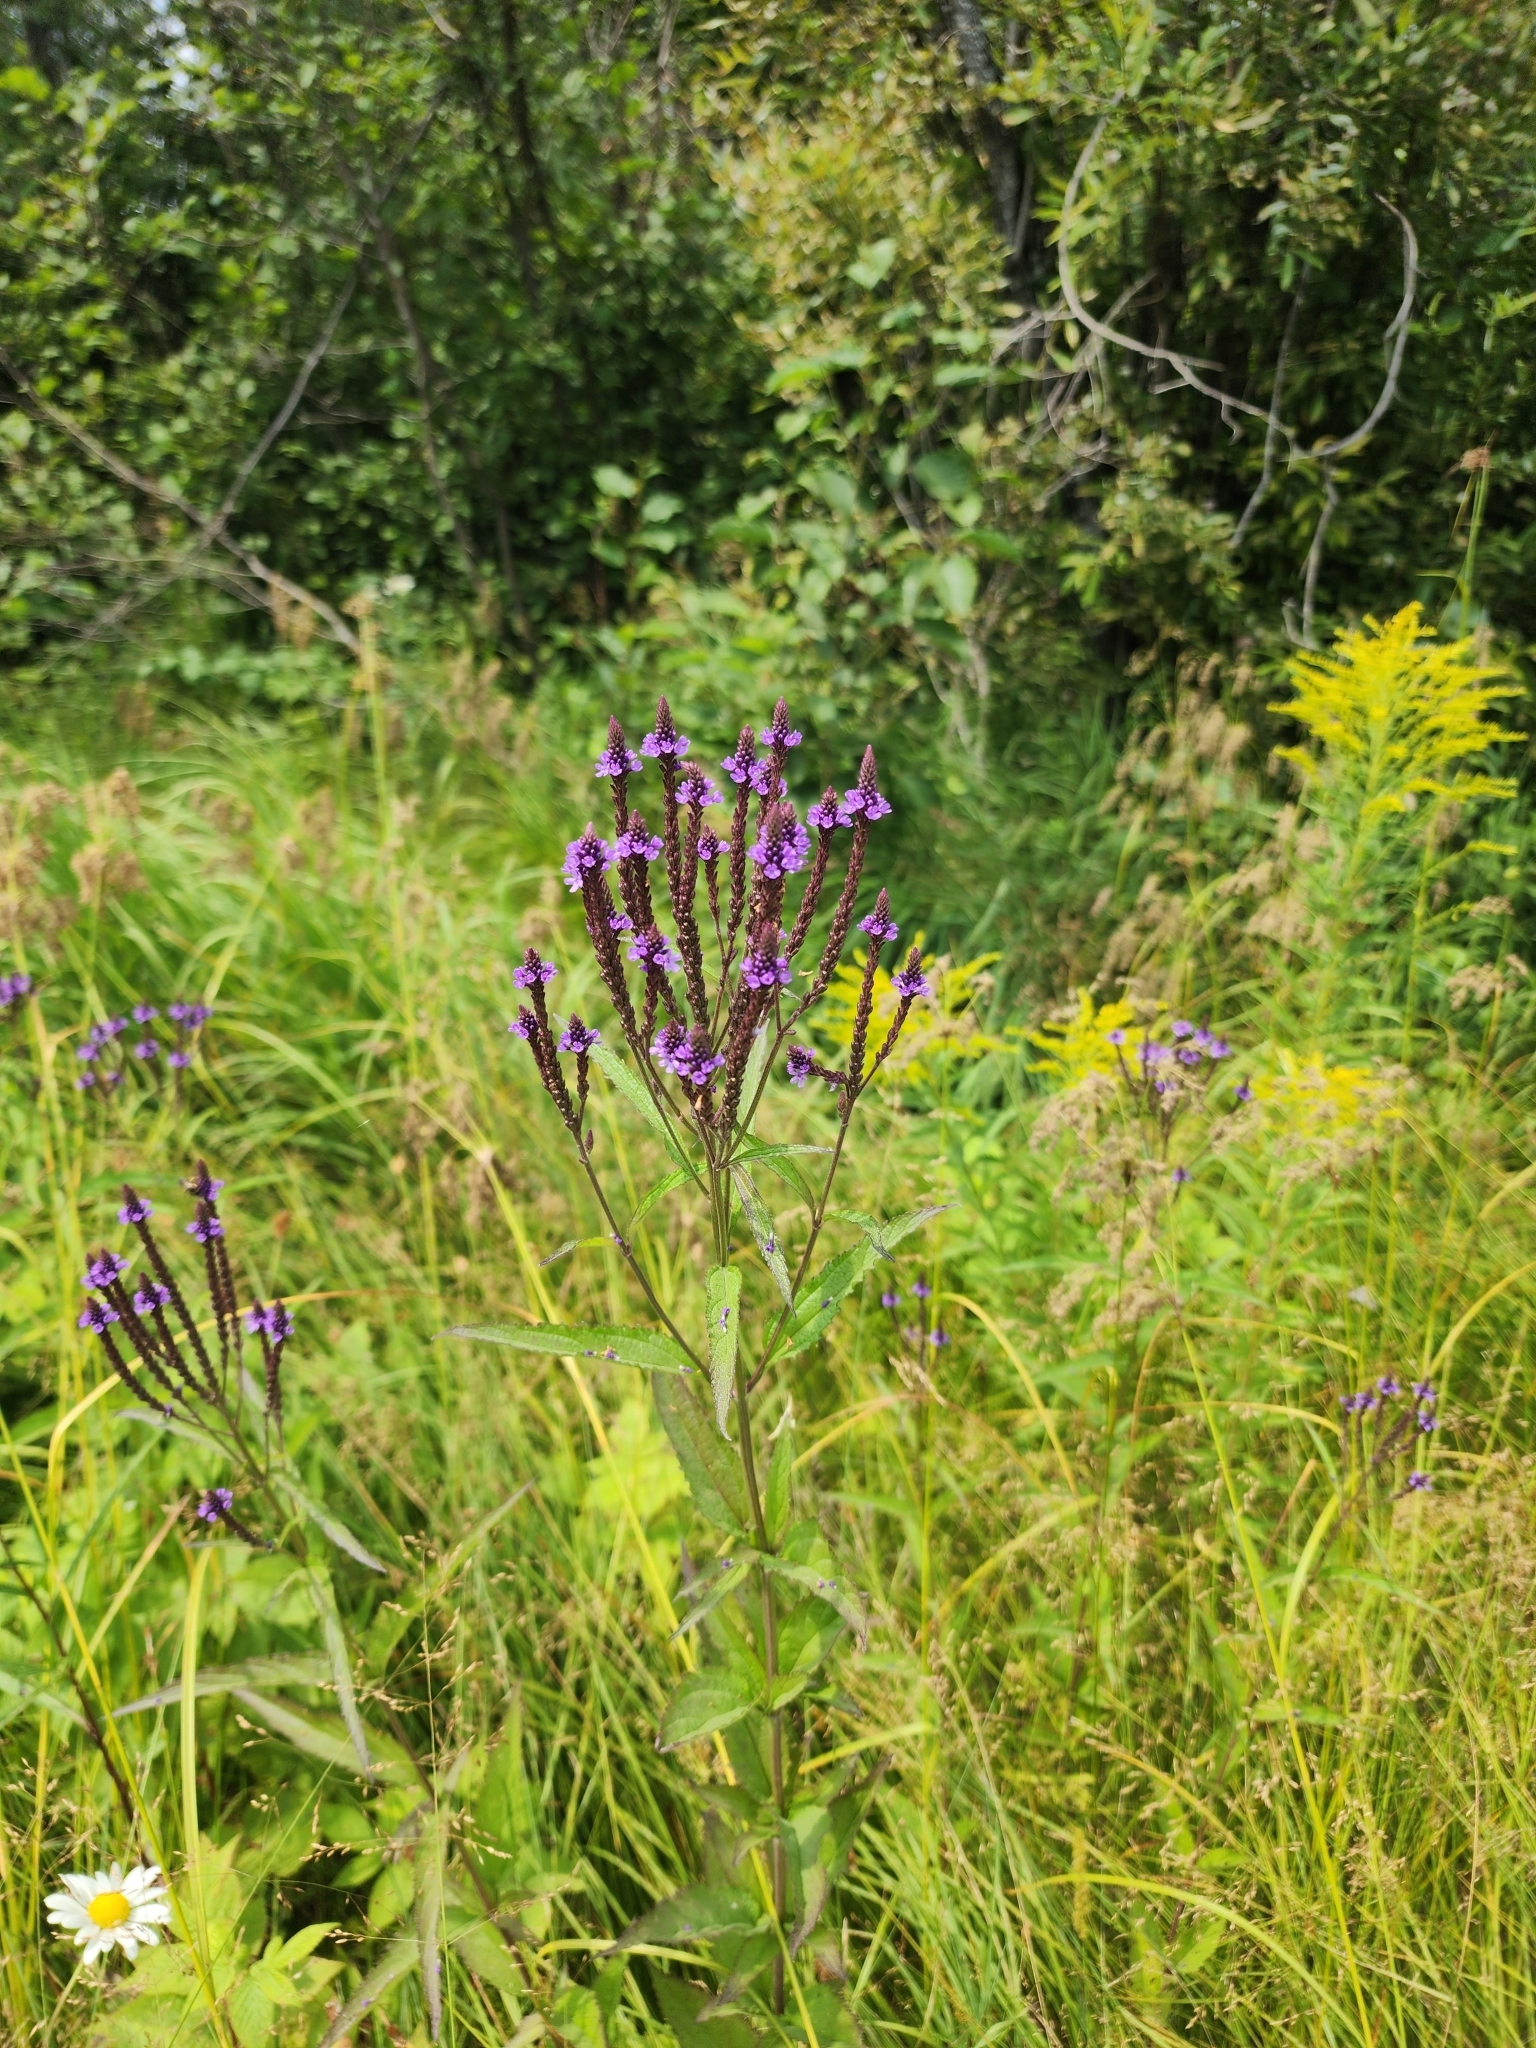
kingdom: Plantae
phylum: Tracheophyta
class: Magnoliopsida
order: Lamiales
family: Verbenaceae
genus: Verbena
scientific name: Verbena hastata
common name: American blue vervain
